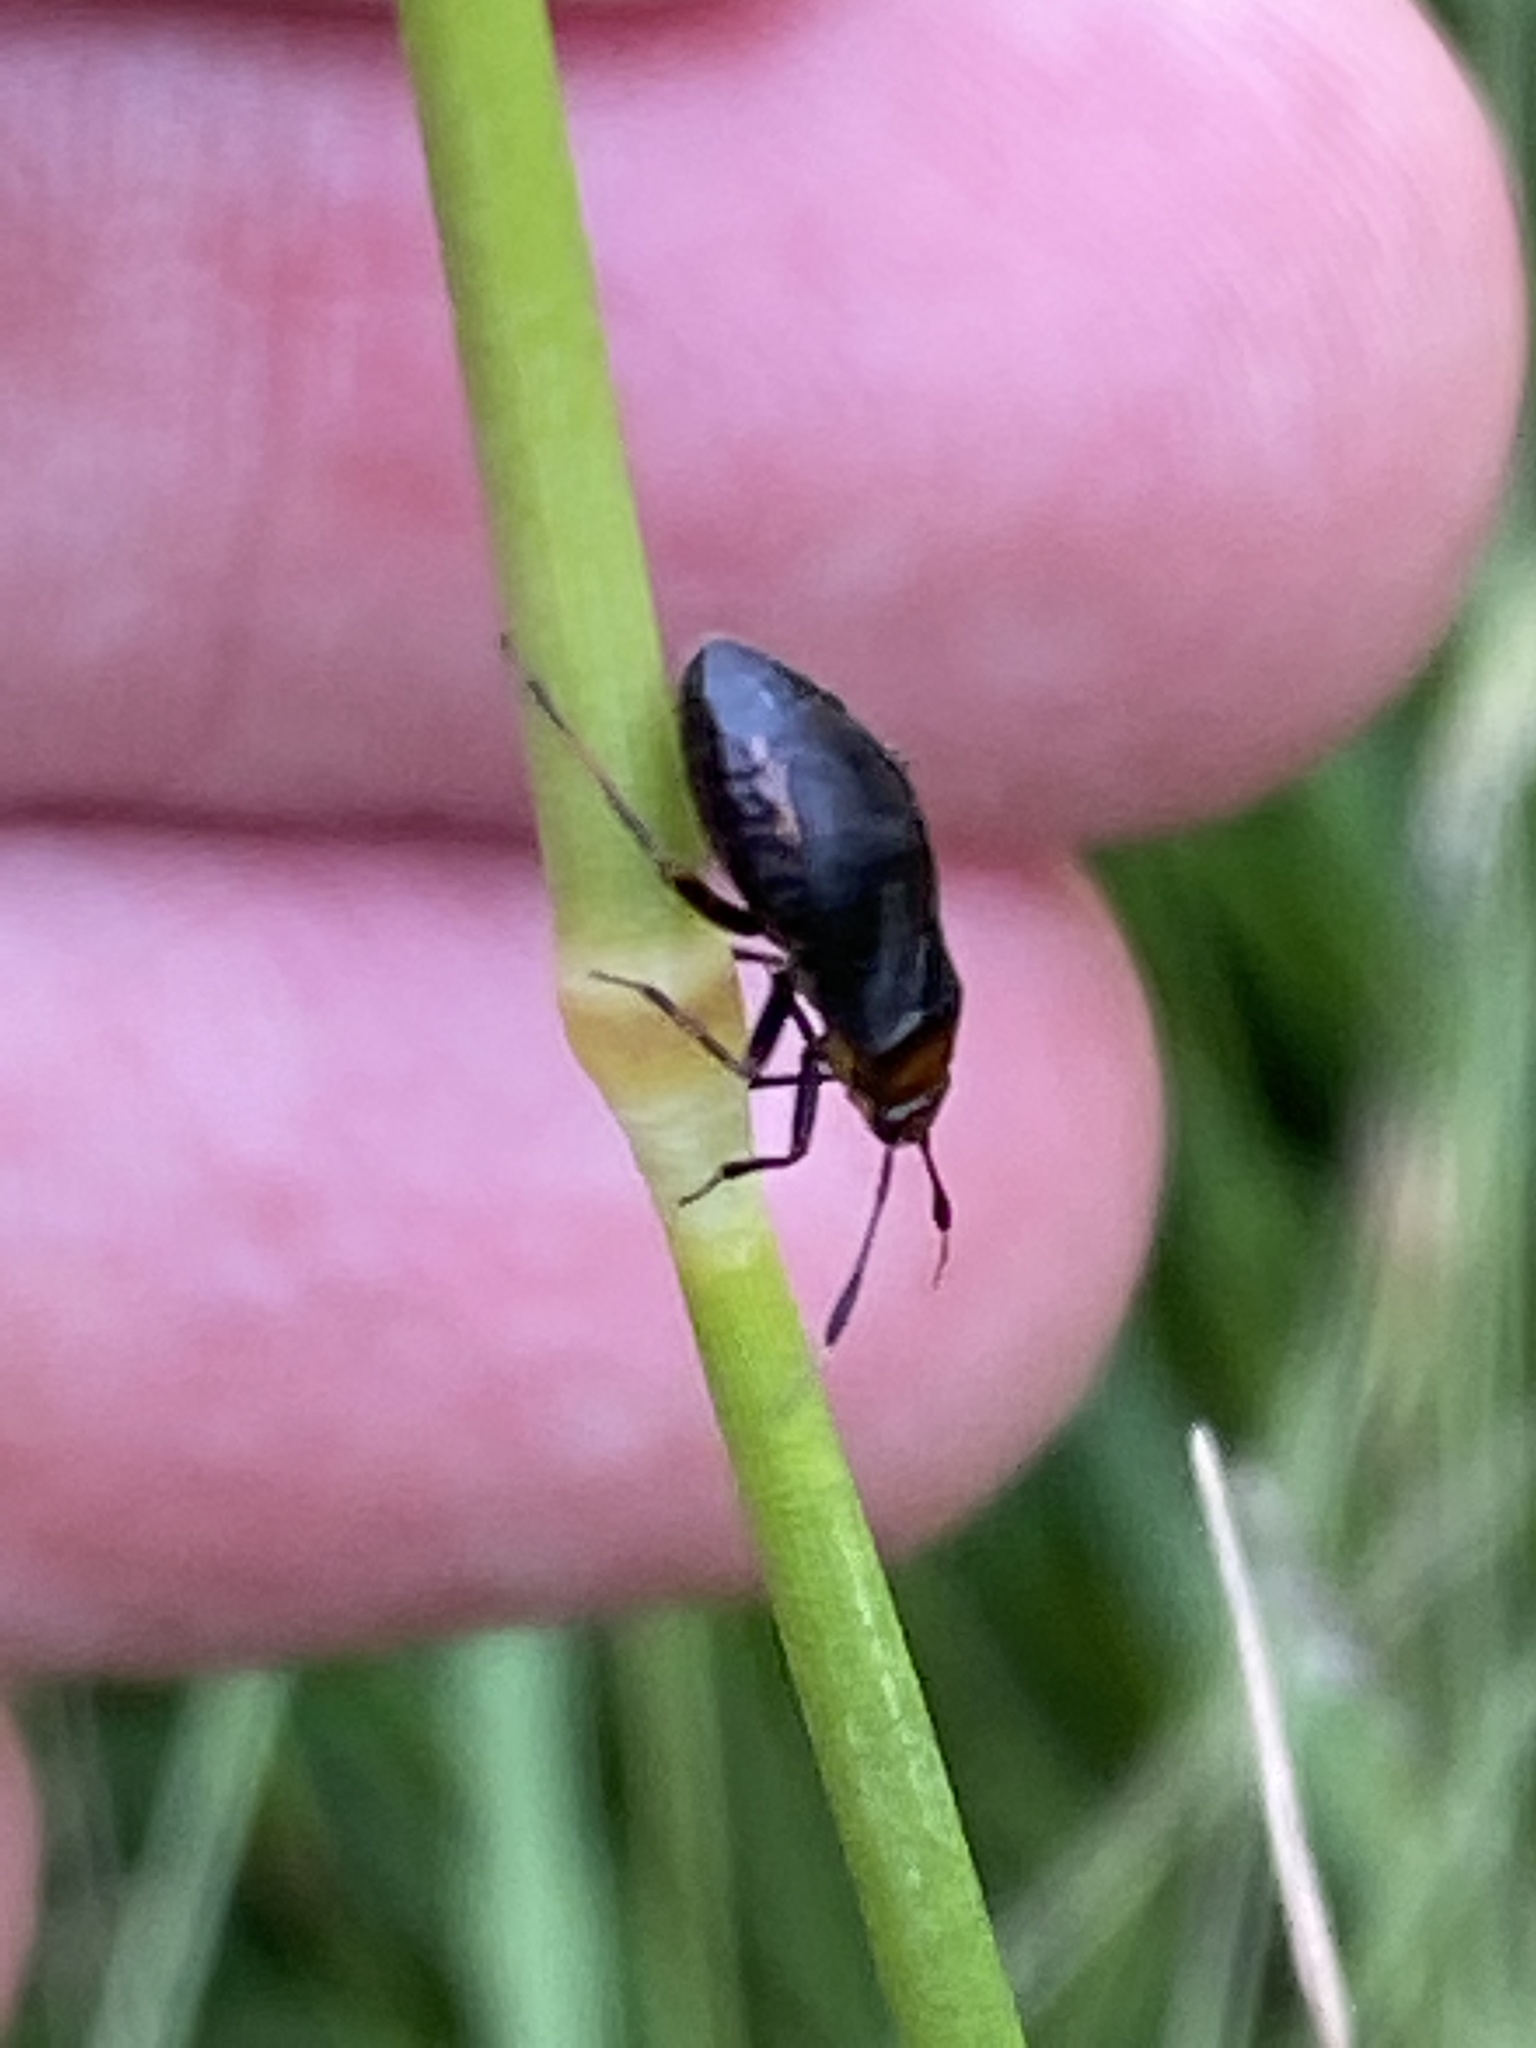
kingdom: Animalia
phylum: Arthropoda
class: Insecta
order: Hemiptera
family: Miridae
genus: Capsus
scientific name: Capsus ater
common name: Black plant bug
